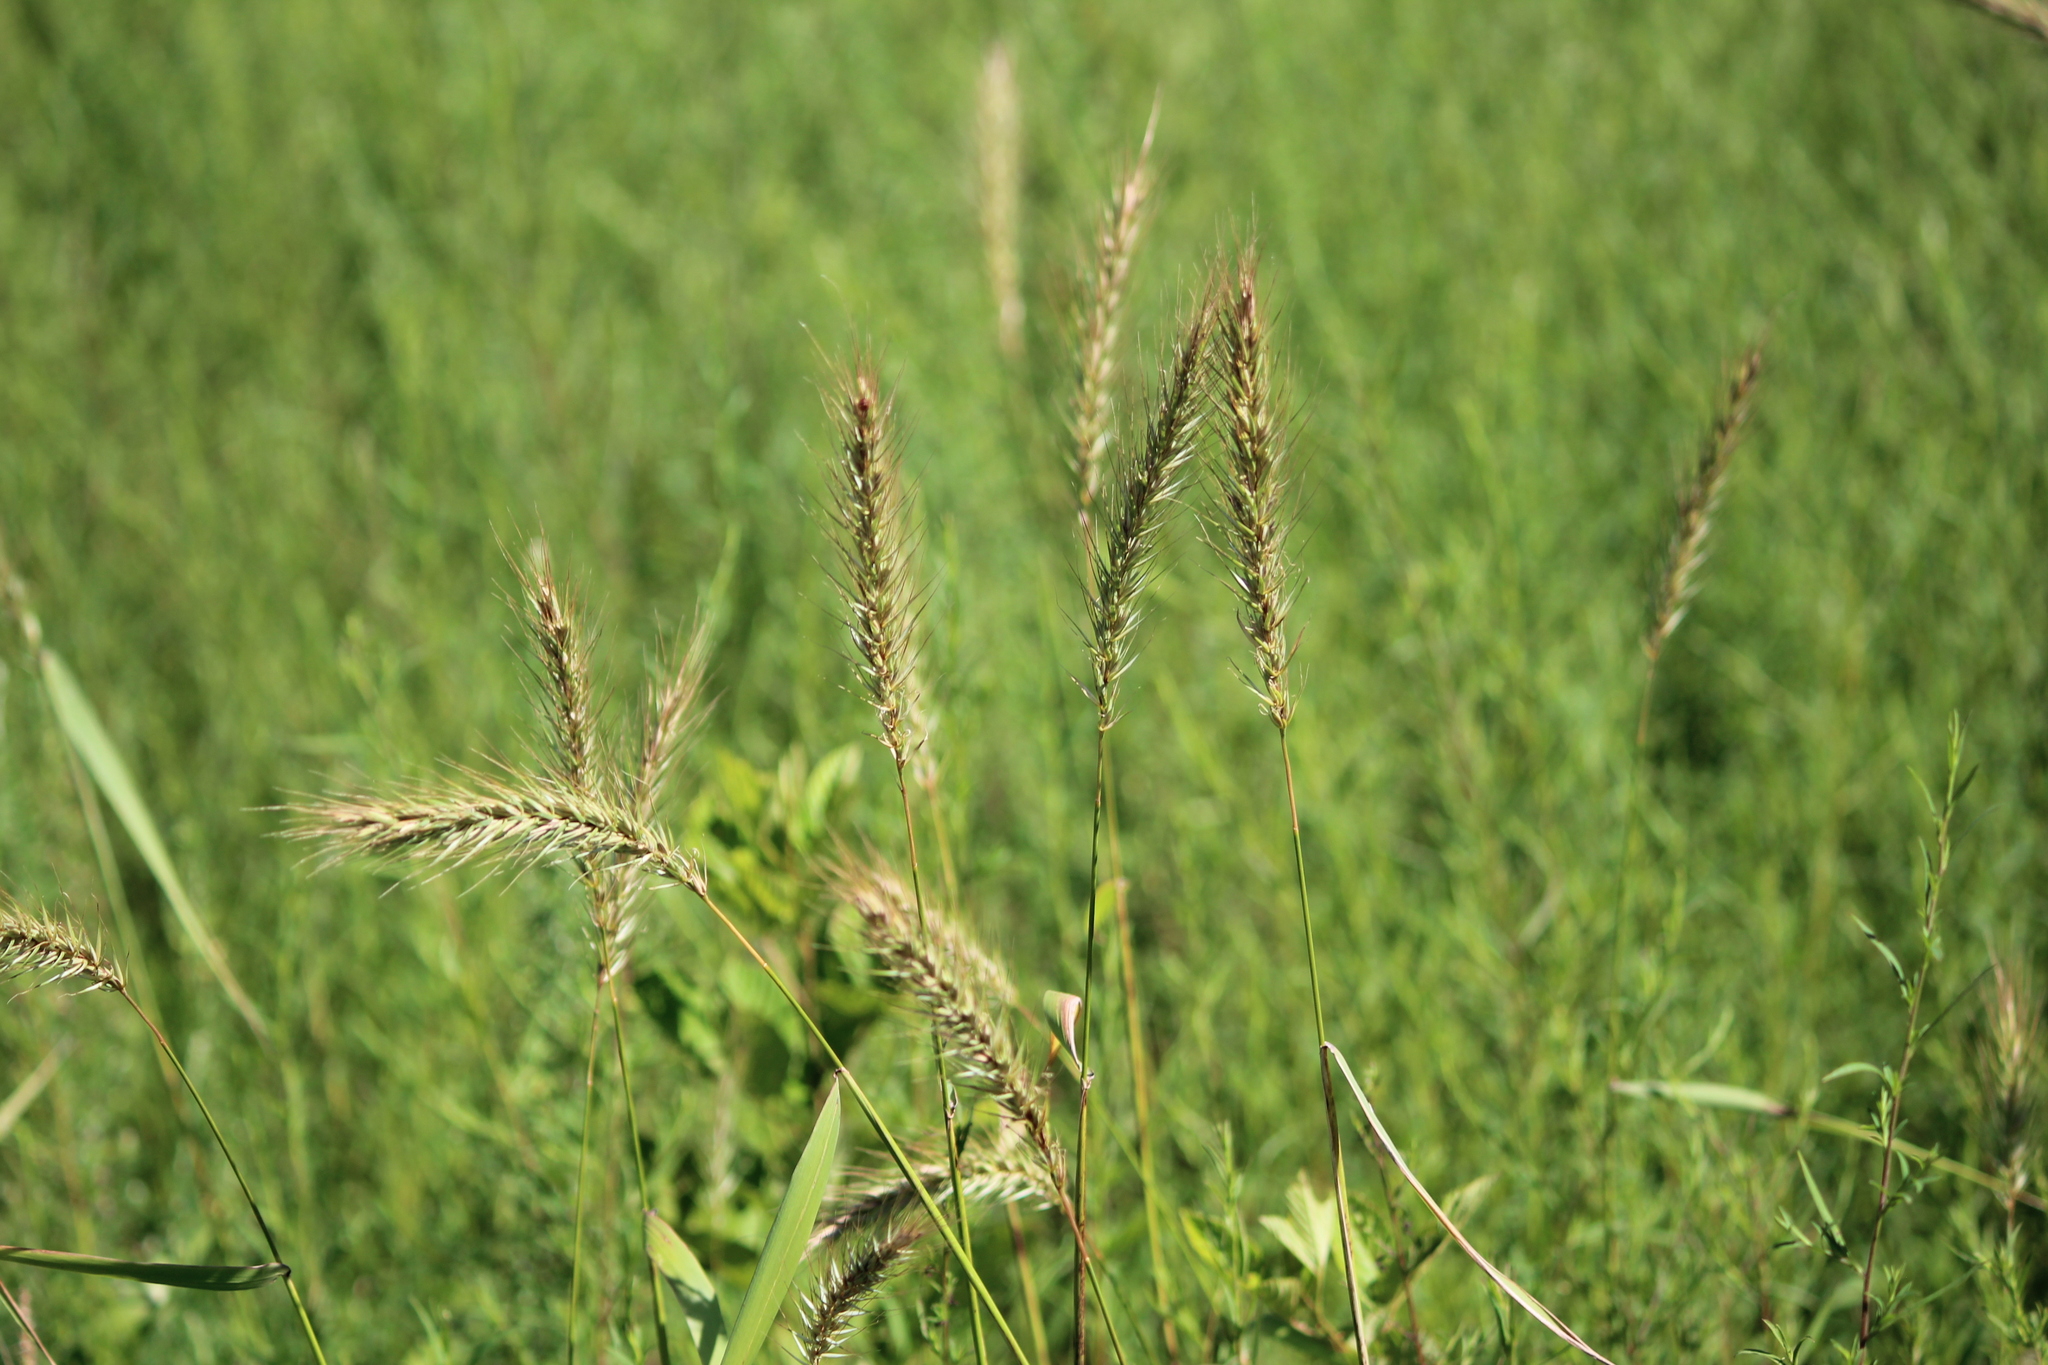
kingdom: Plantae
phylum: Tracheophyta
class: Liliopsida
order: Poales
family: Poaceae
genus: Elymus
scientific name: Elymus virginicus
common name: Common eastern wildrye
